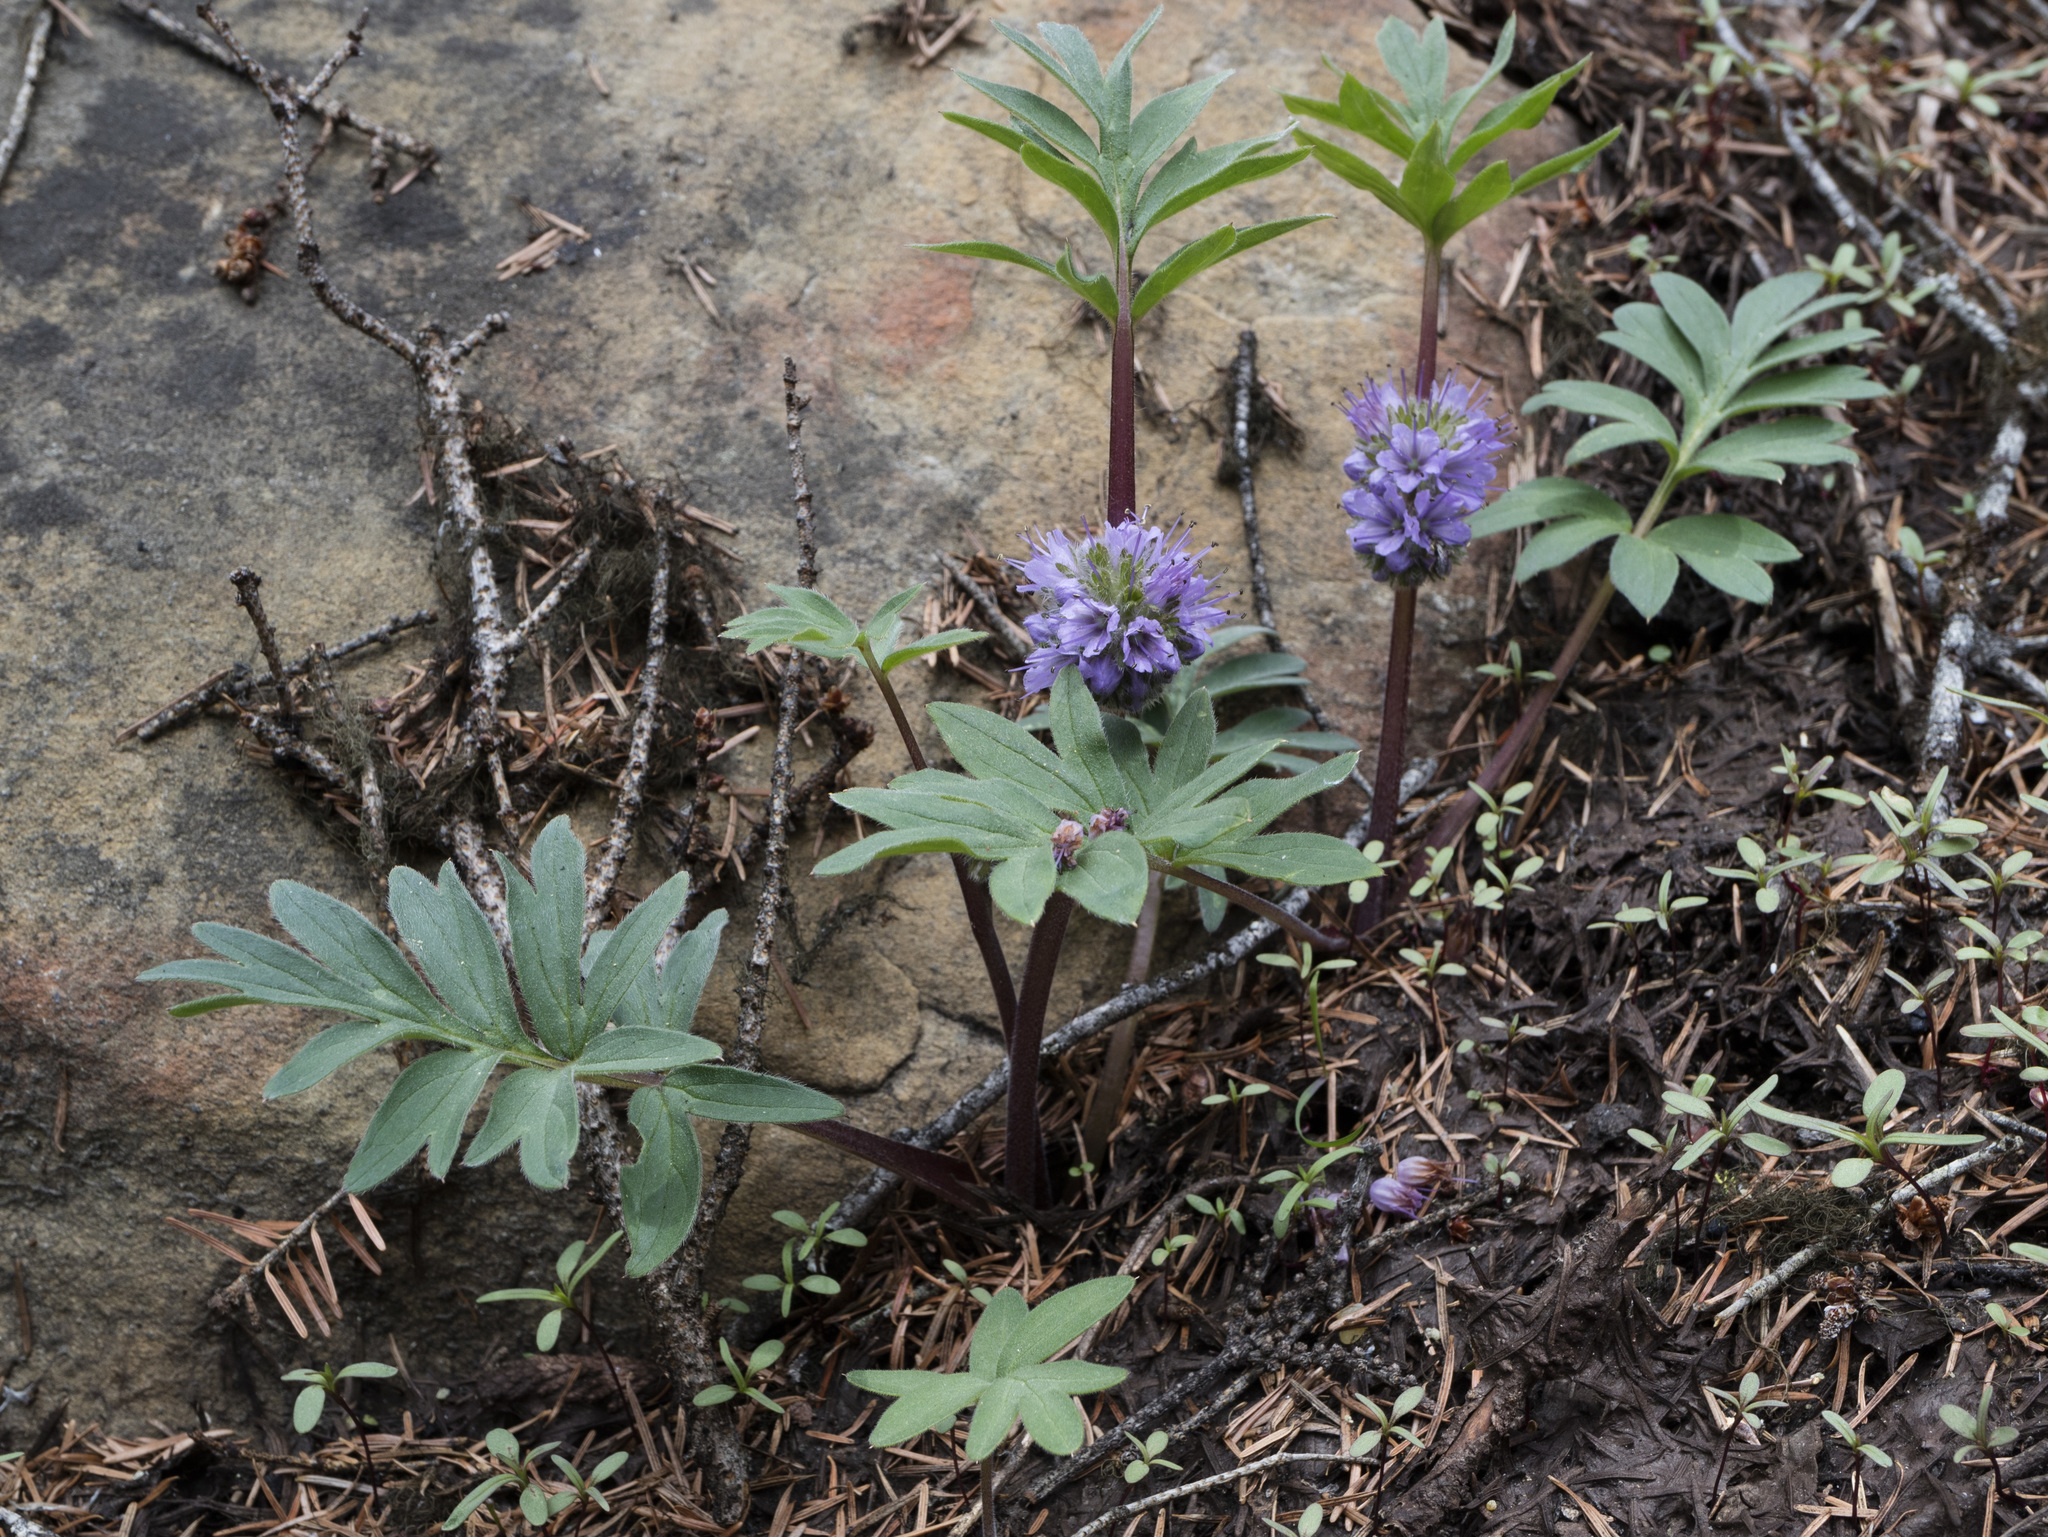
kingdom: Plantae
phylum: Tracheophyta
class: Magnoliopsida
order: Boraginales
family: Hydrophyllaceae
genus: Hydrophyllum
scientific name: Hydrophyllum capitatum
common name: Woollen-breeches
